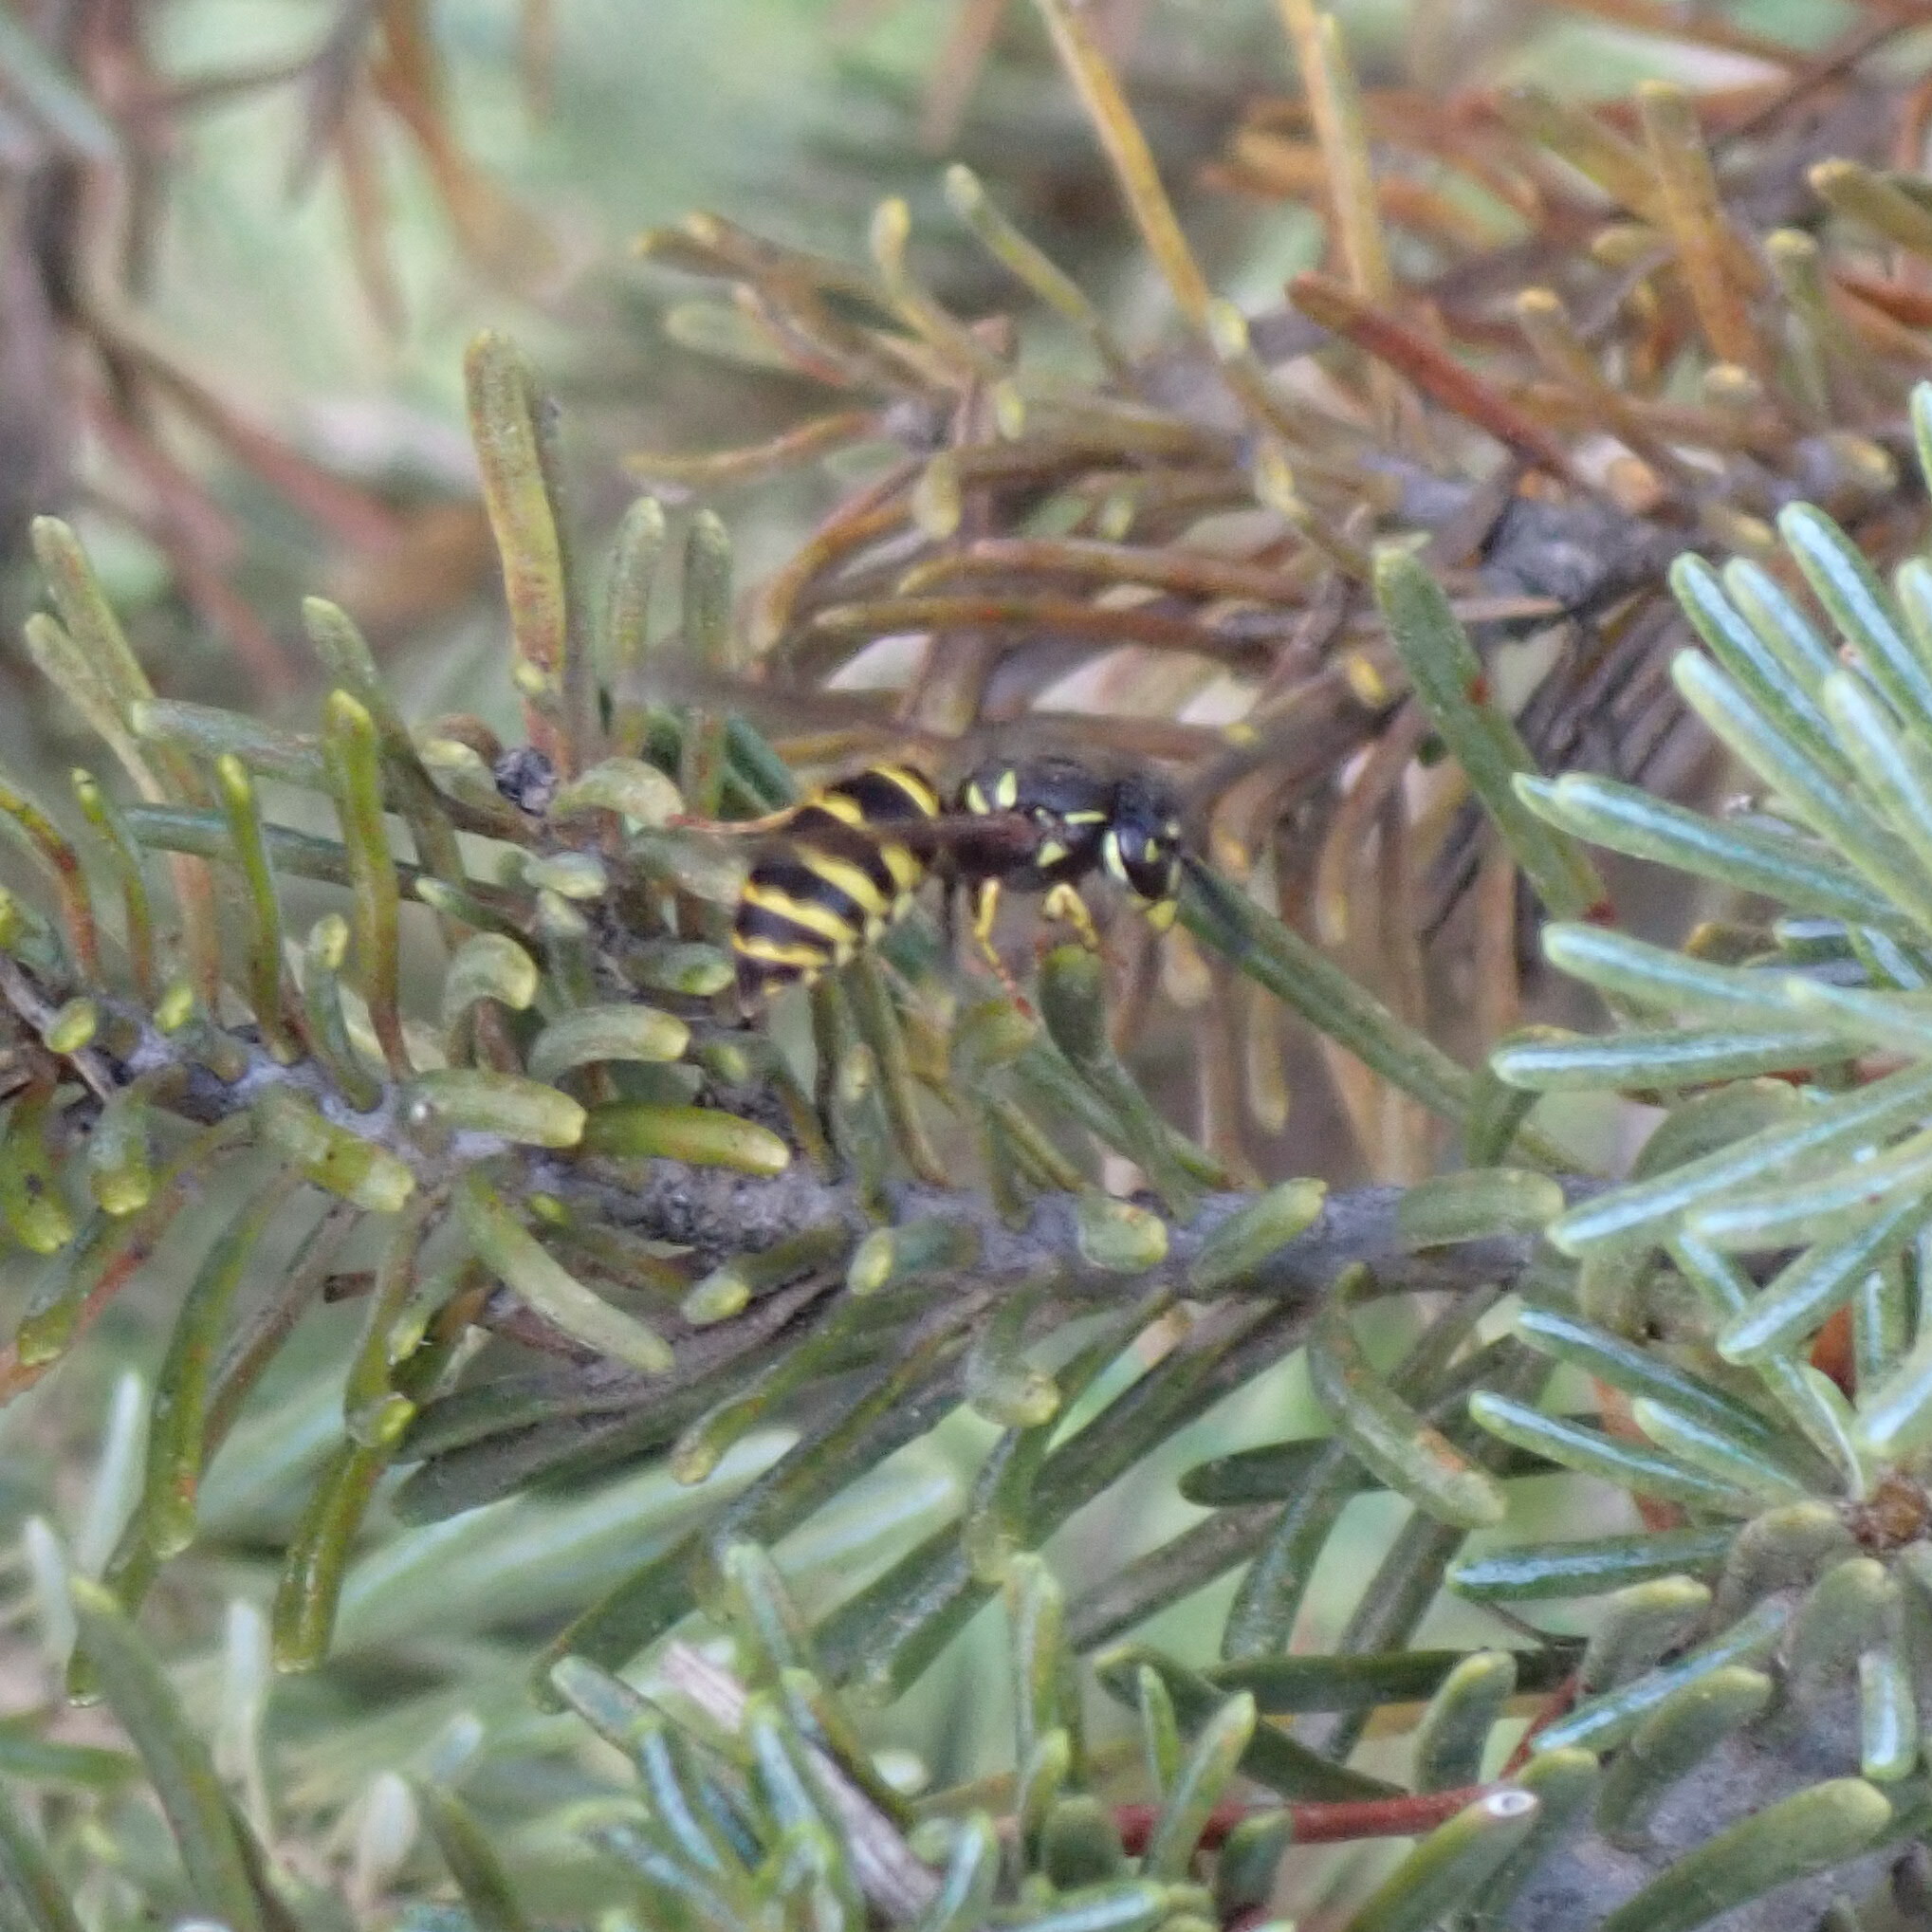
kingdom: Animalia
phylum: Arthropoda
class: Insecta
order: Hymenoptera
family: Vespidae
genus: Vespula
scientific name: Vespula alascensis
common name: Alaska yellowjacket
